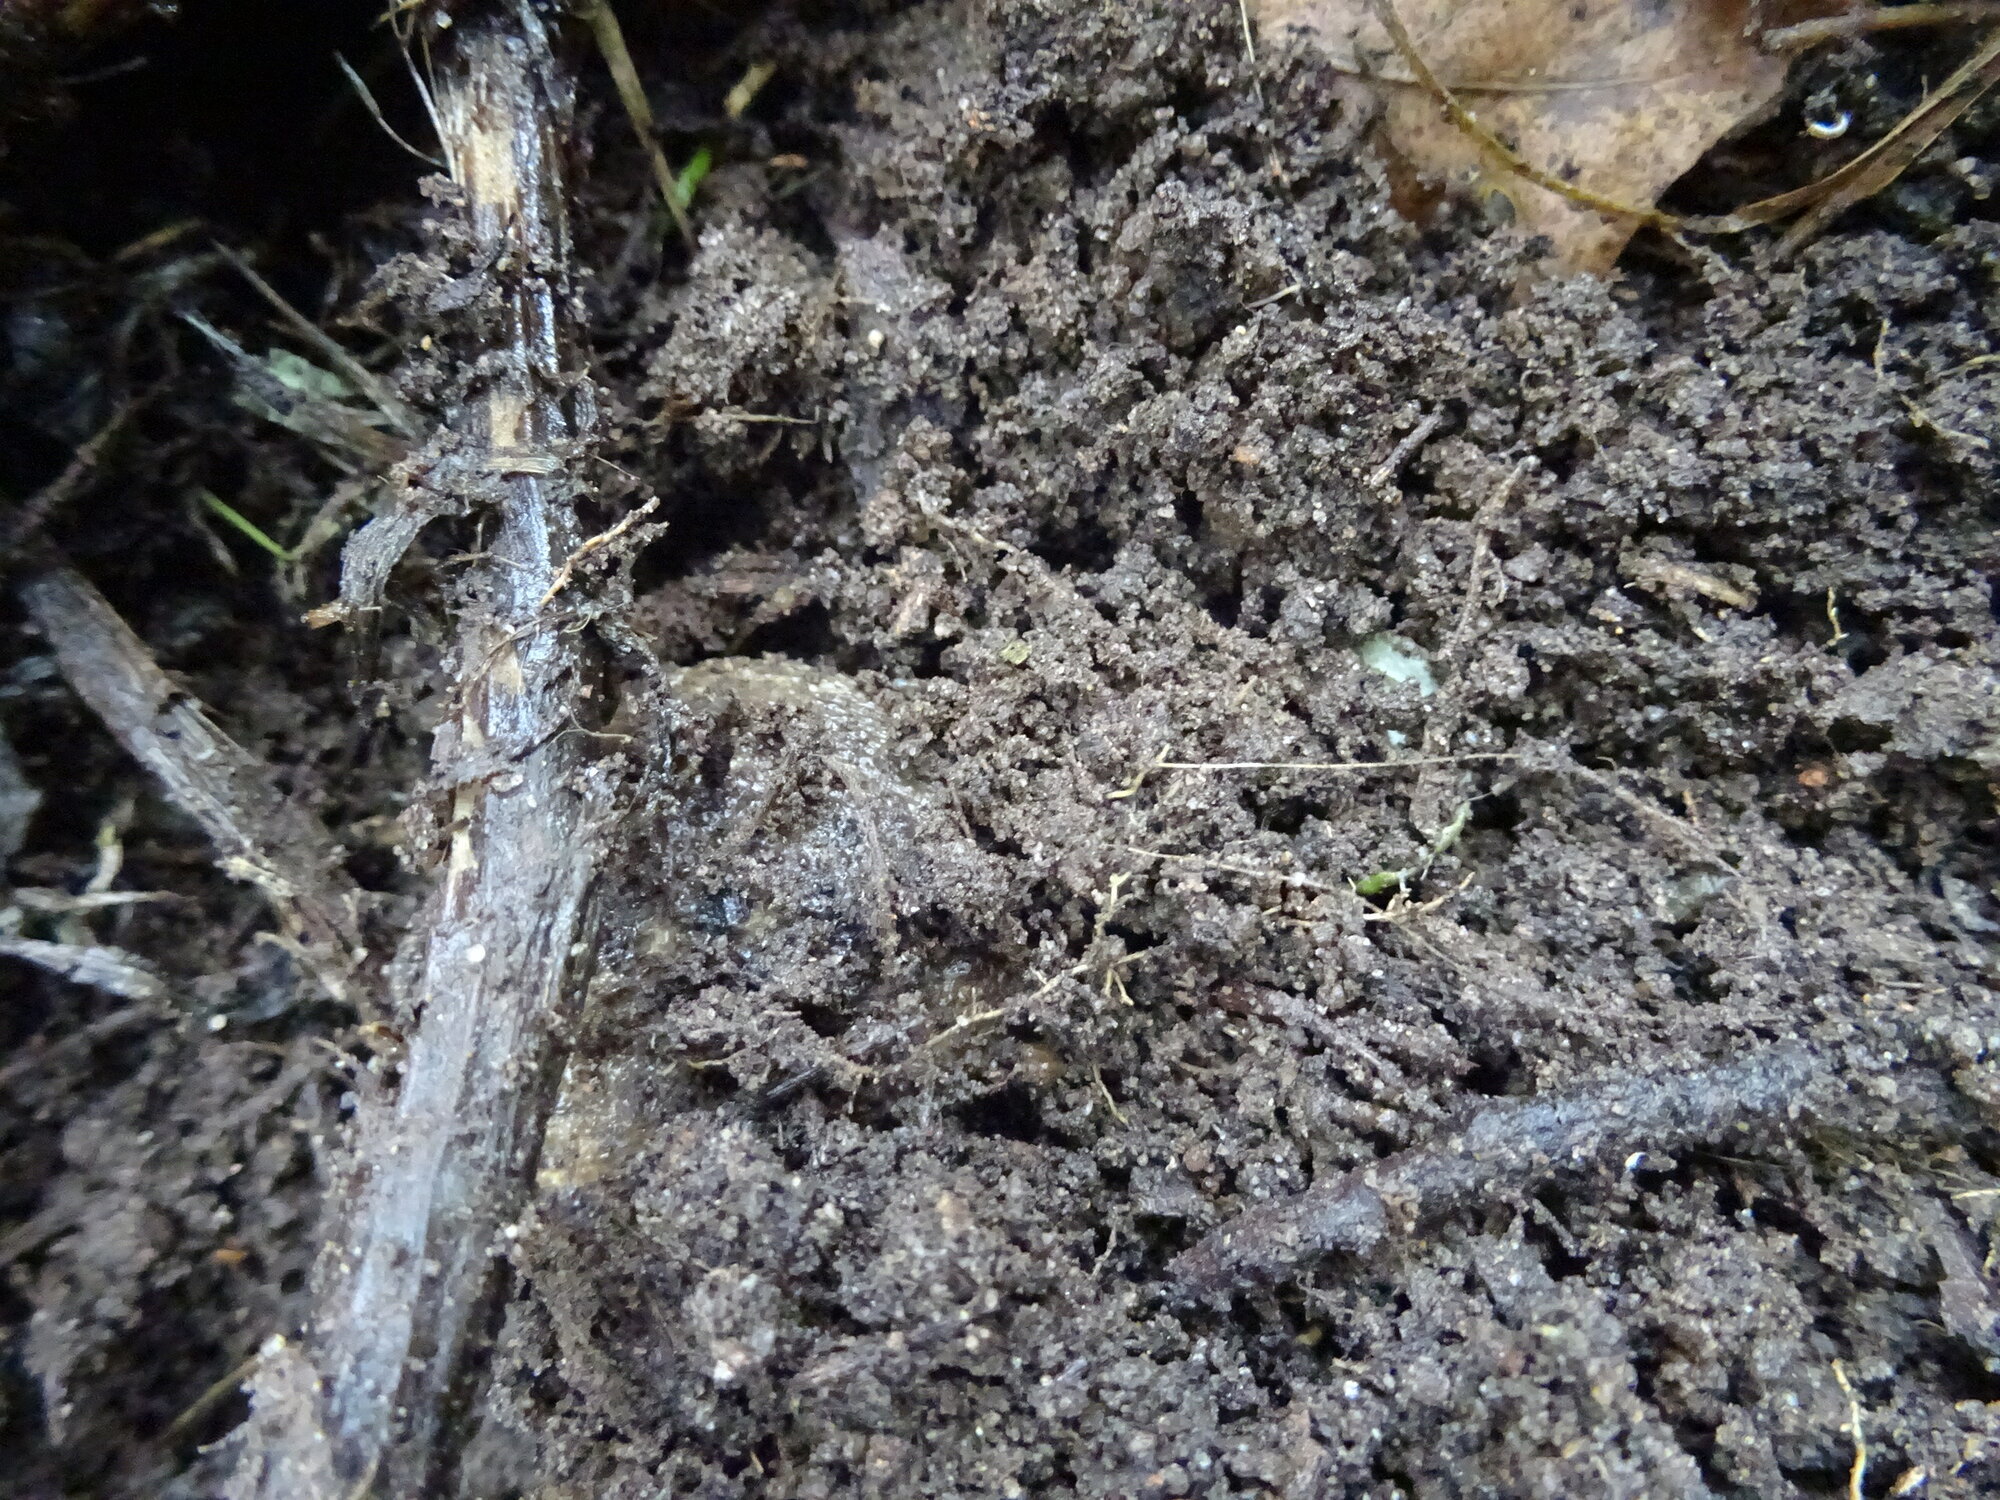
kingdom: Animalia
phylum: Chordata
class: Amphibia
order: Anura
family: Brevicipitidae
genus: Breviceps
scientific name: Breviceps gibbosus
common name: Cape rain frog
